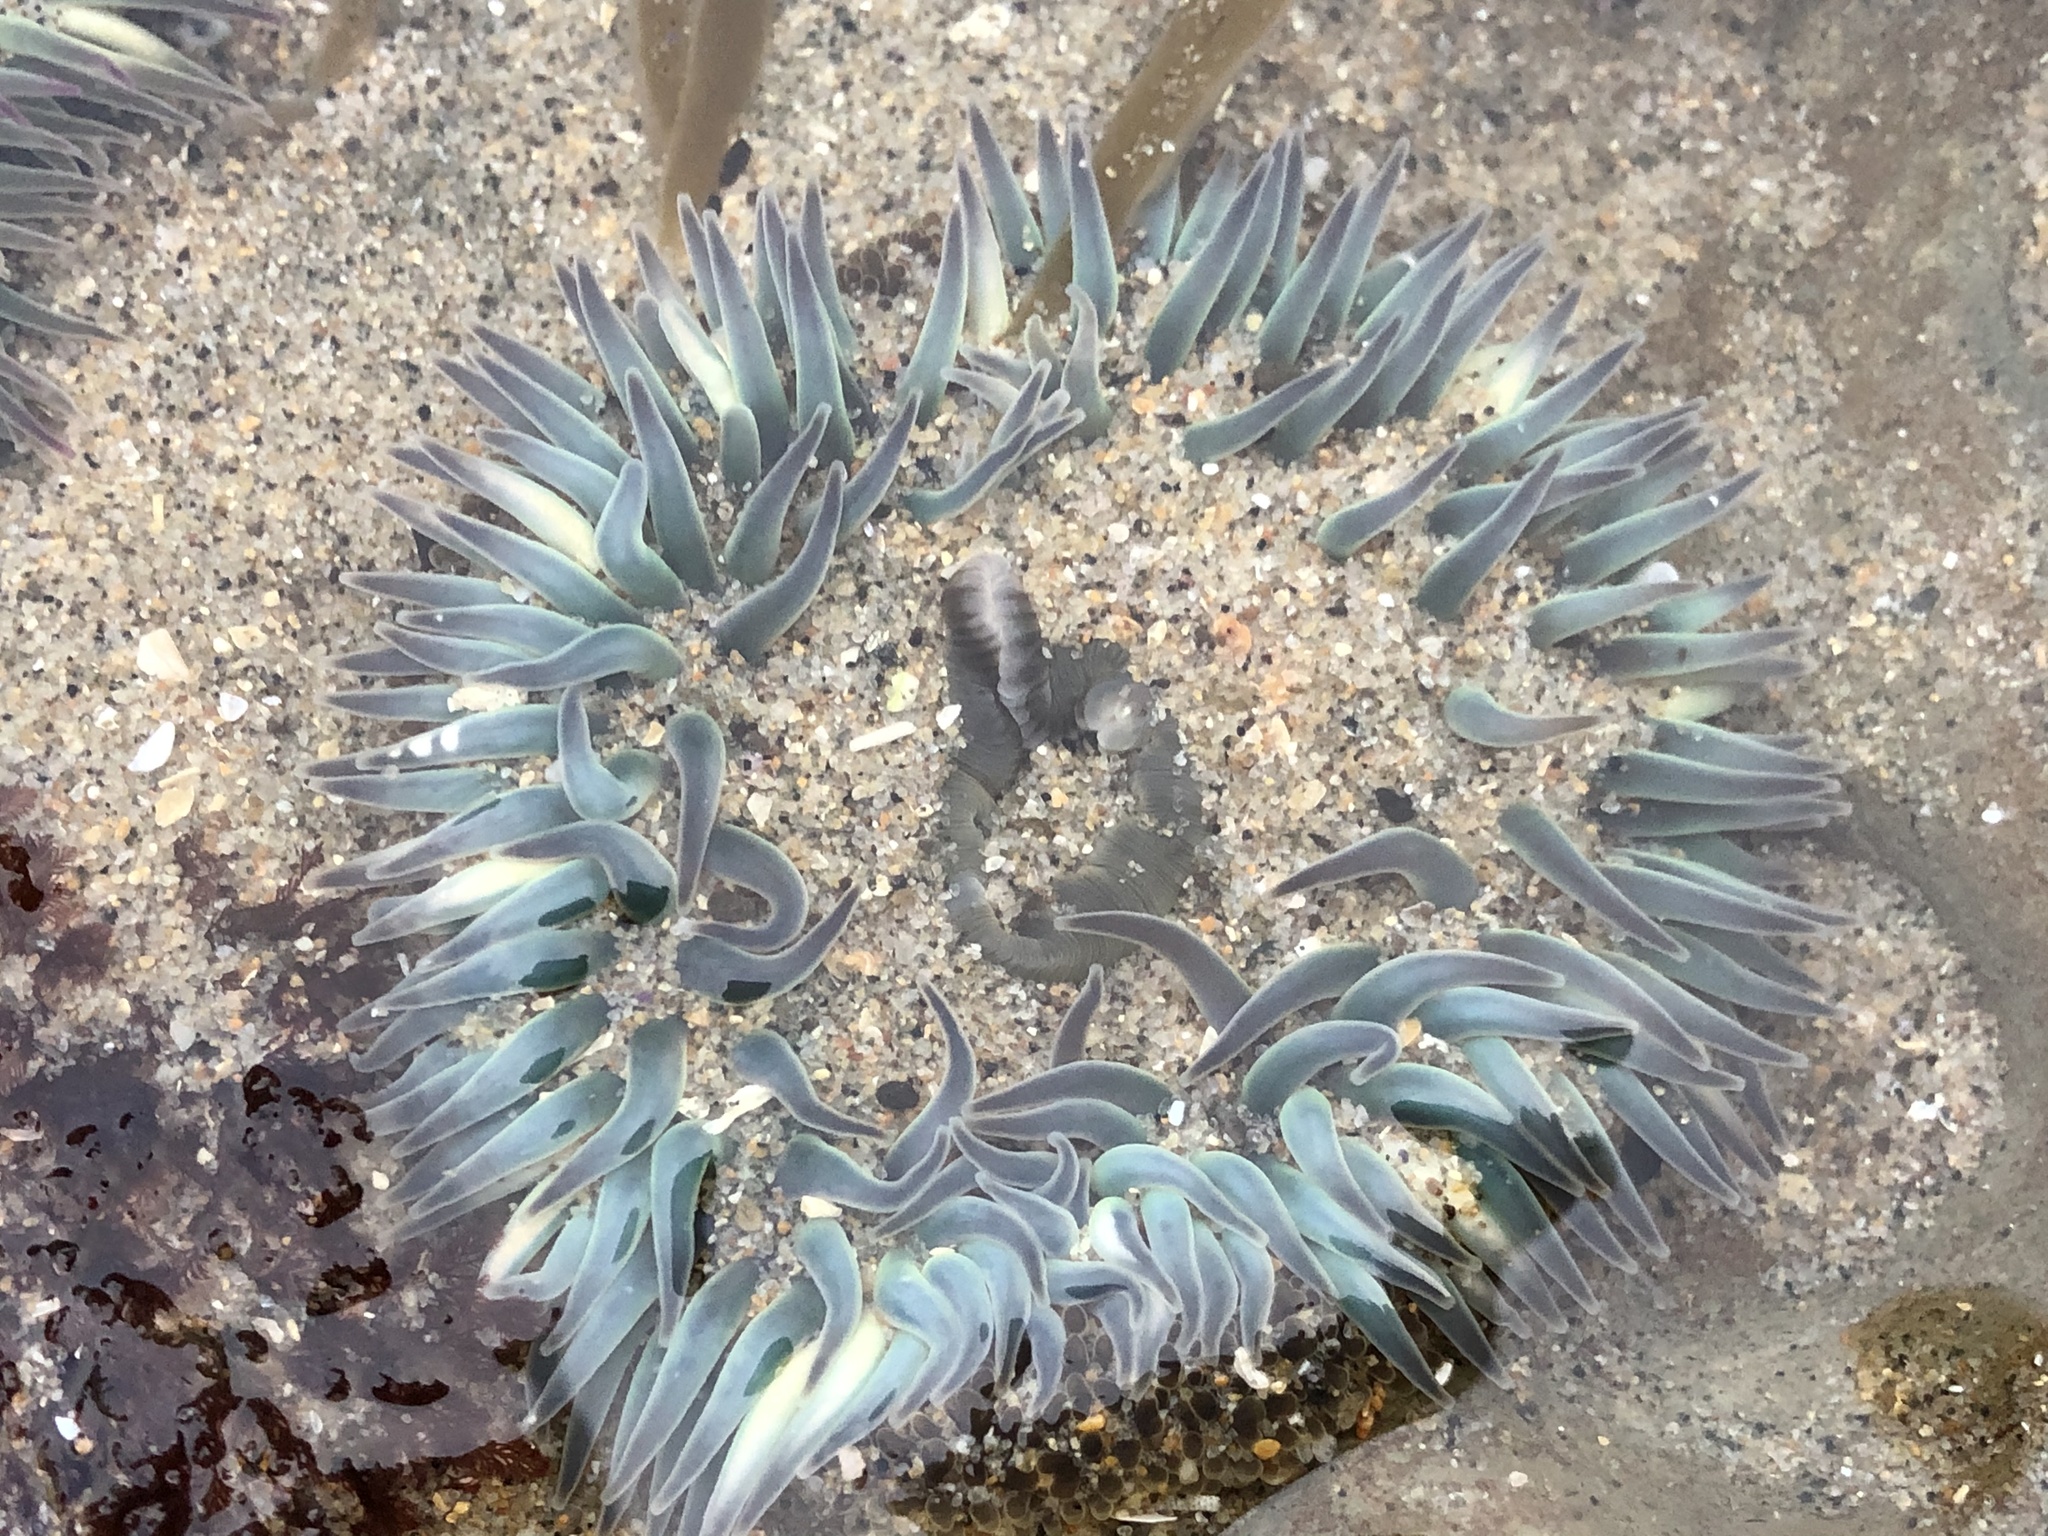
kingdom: Animalia
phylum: Cnidaria
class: Anthozoa
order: Actiniaria
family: Actiniidae
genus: Anthopleura
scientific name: Anthopleura sola
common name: Sun anemone
